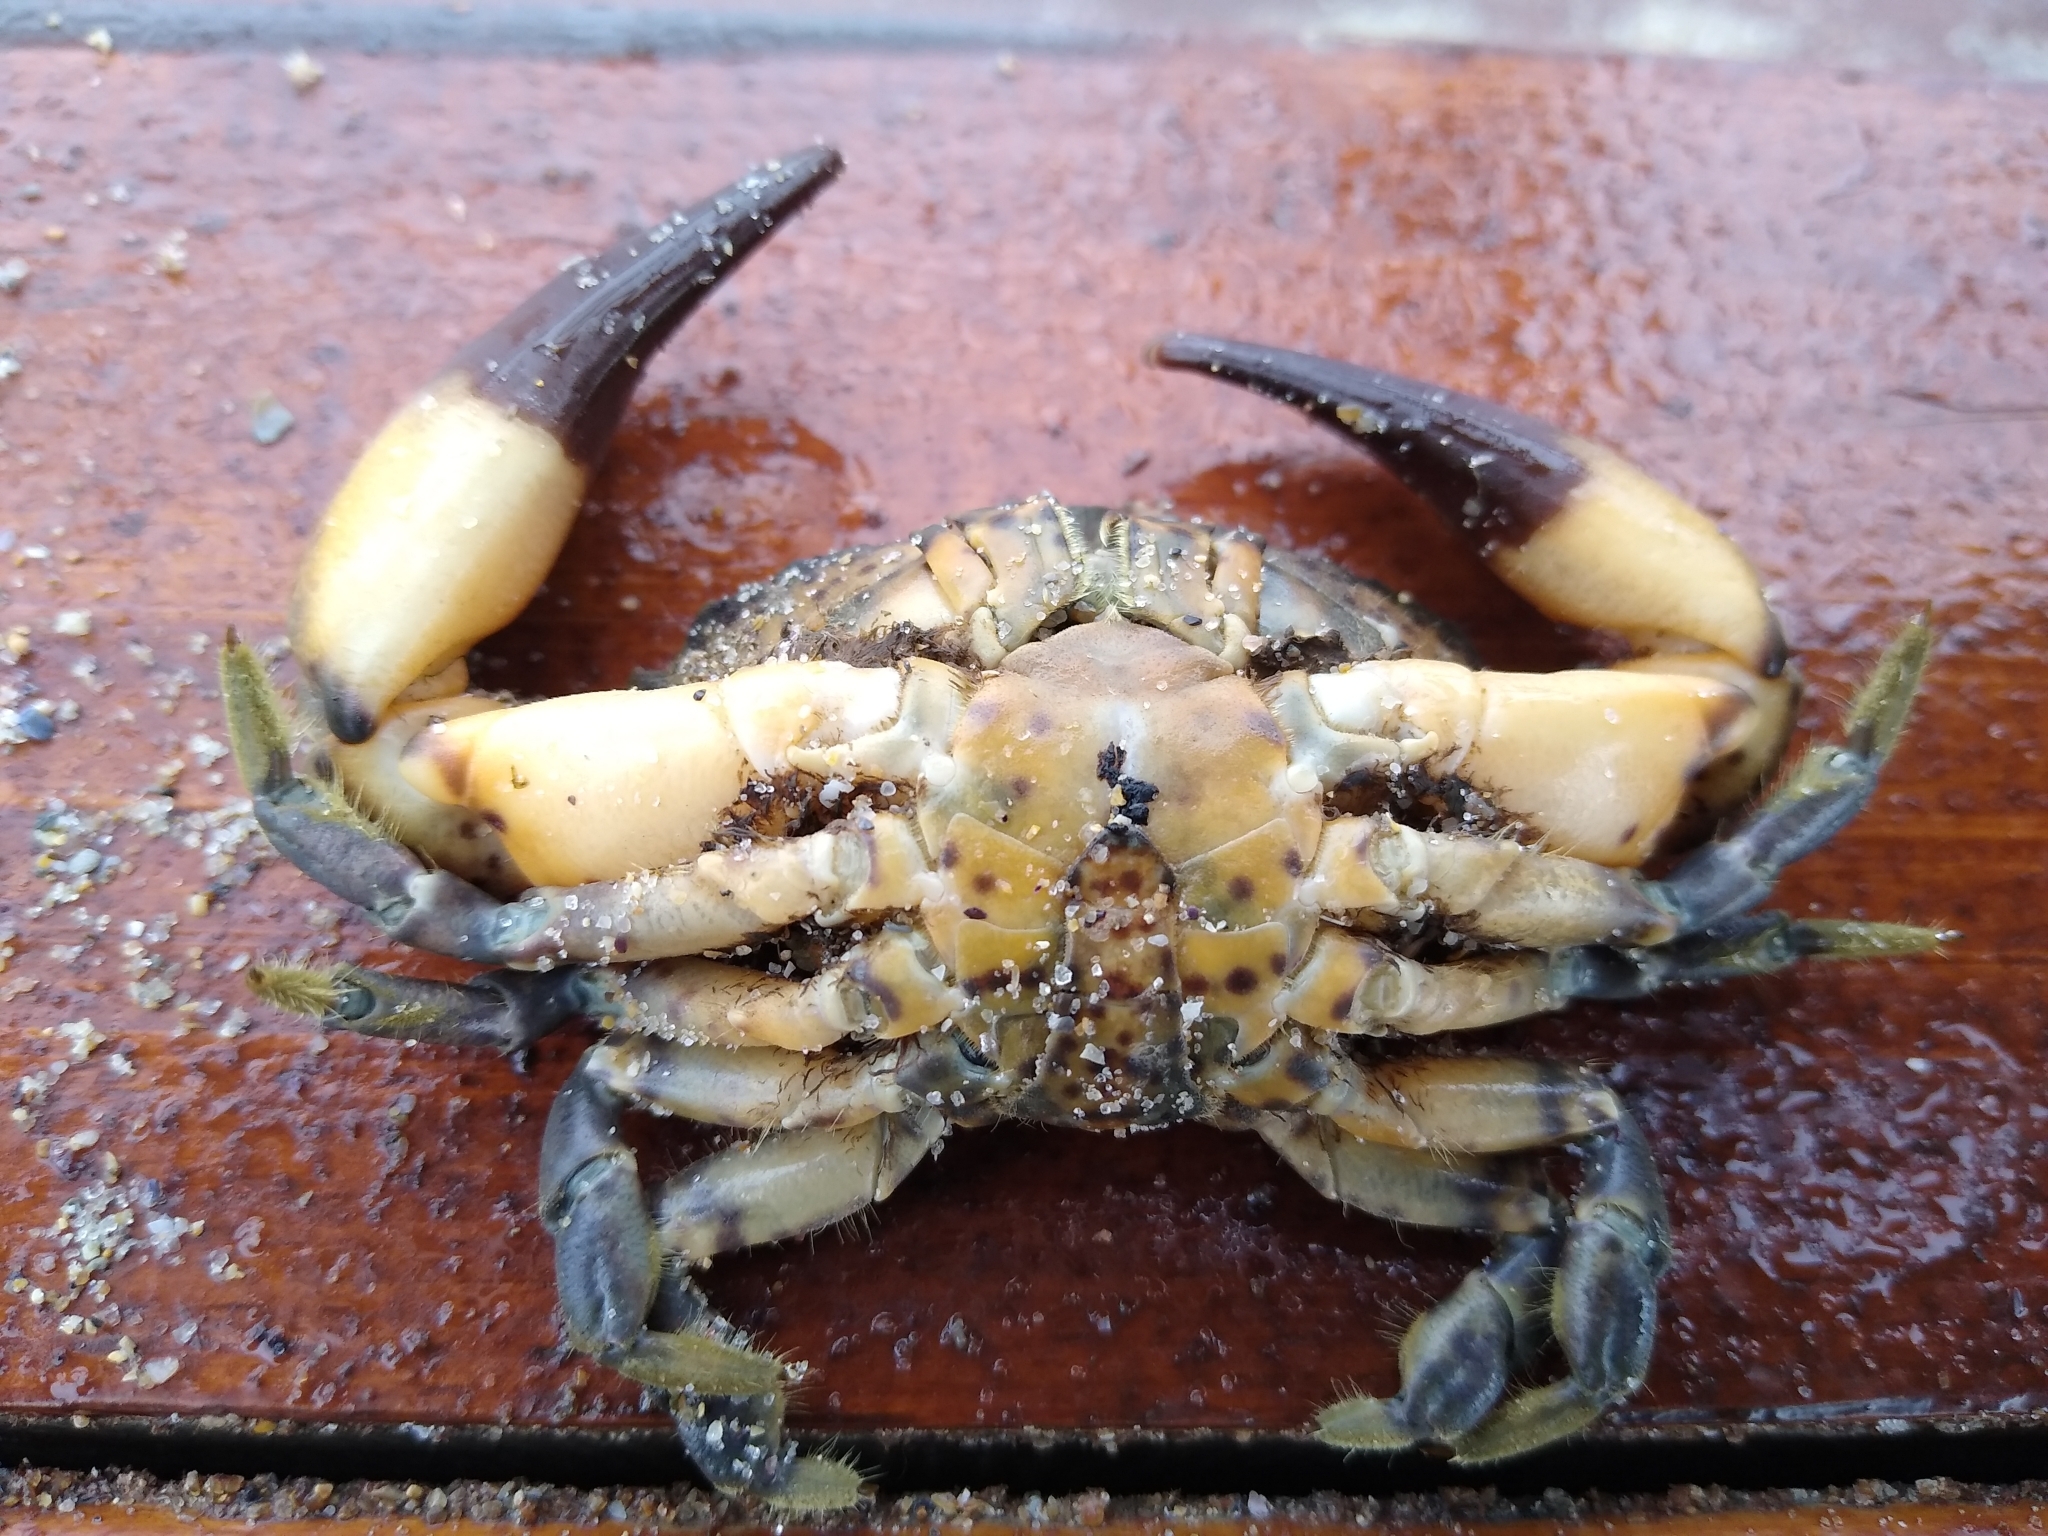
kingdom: Animalia
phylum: Arthropoda
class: Malacostraca
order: Decapoda
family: Xanthidae
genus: Xantho
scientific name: Xantho poressa
